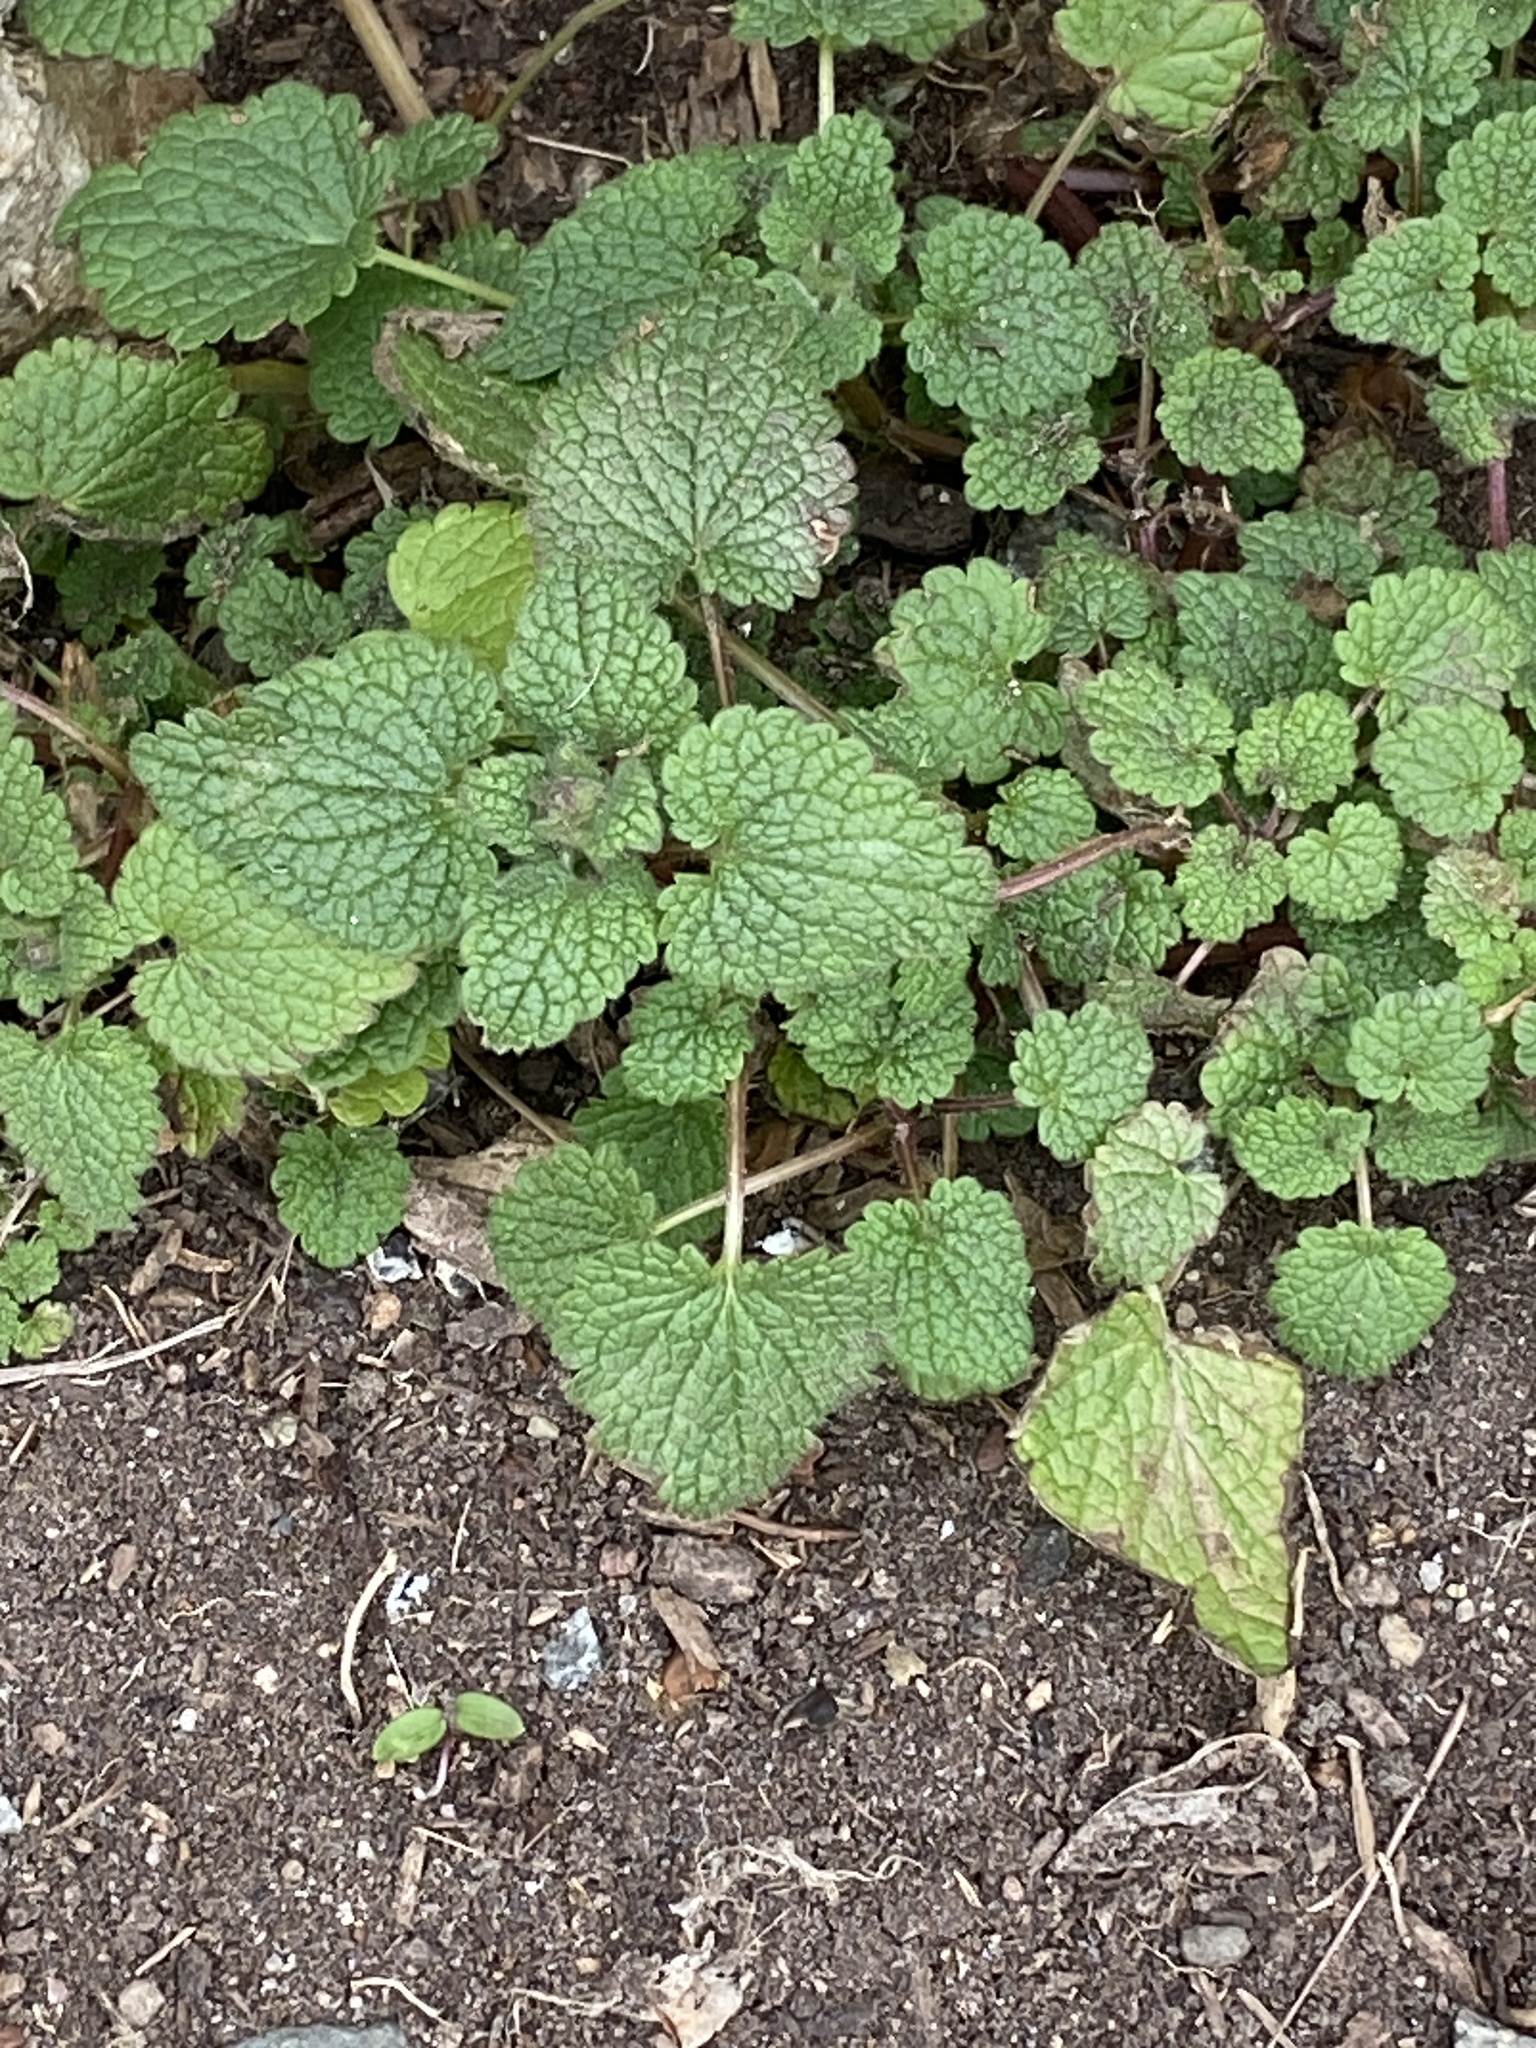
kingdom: Plantae
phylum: Tracheophyta
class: Magnoliopsida
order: Lamiales
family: Lamiaceae
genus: Lamium
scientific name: Lamium purpureum
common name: Red dead-nettle
